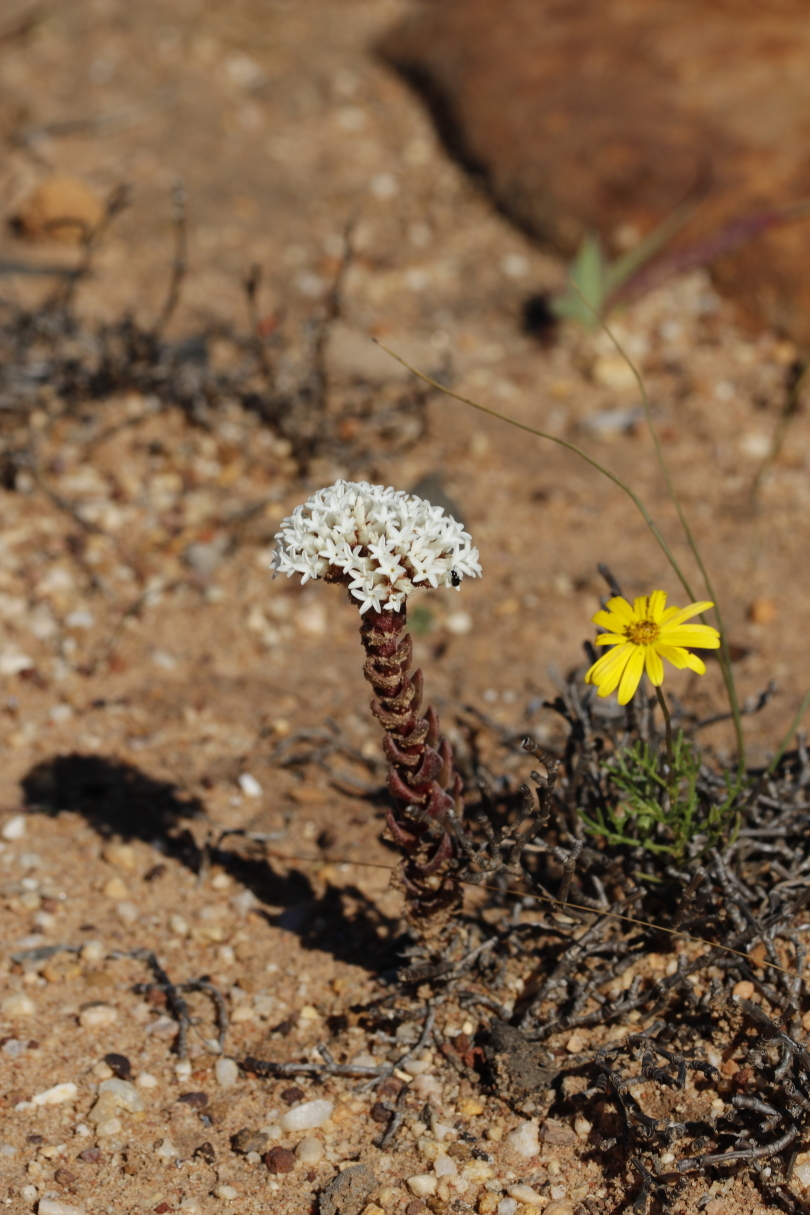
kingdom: Plantae
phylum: Tracheophyta
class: Magnoliopsida
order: Saxifragales
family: Crassulaceae
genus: Crassula
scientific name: Crassula alpestris
